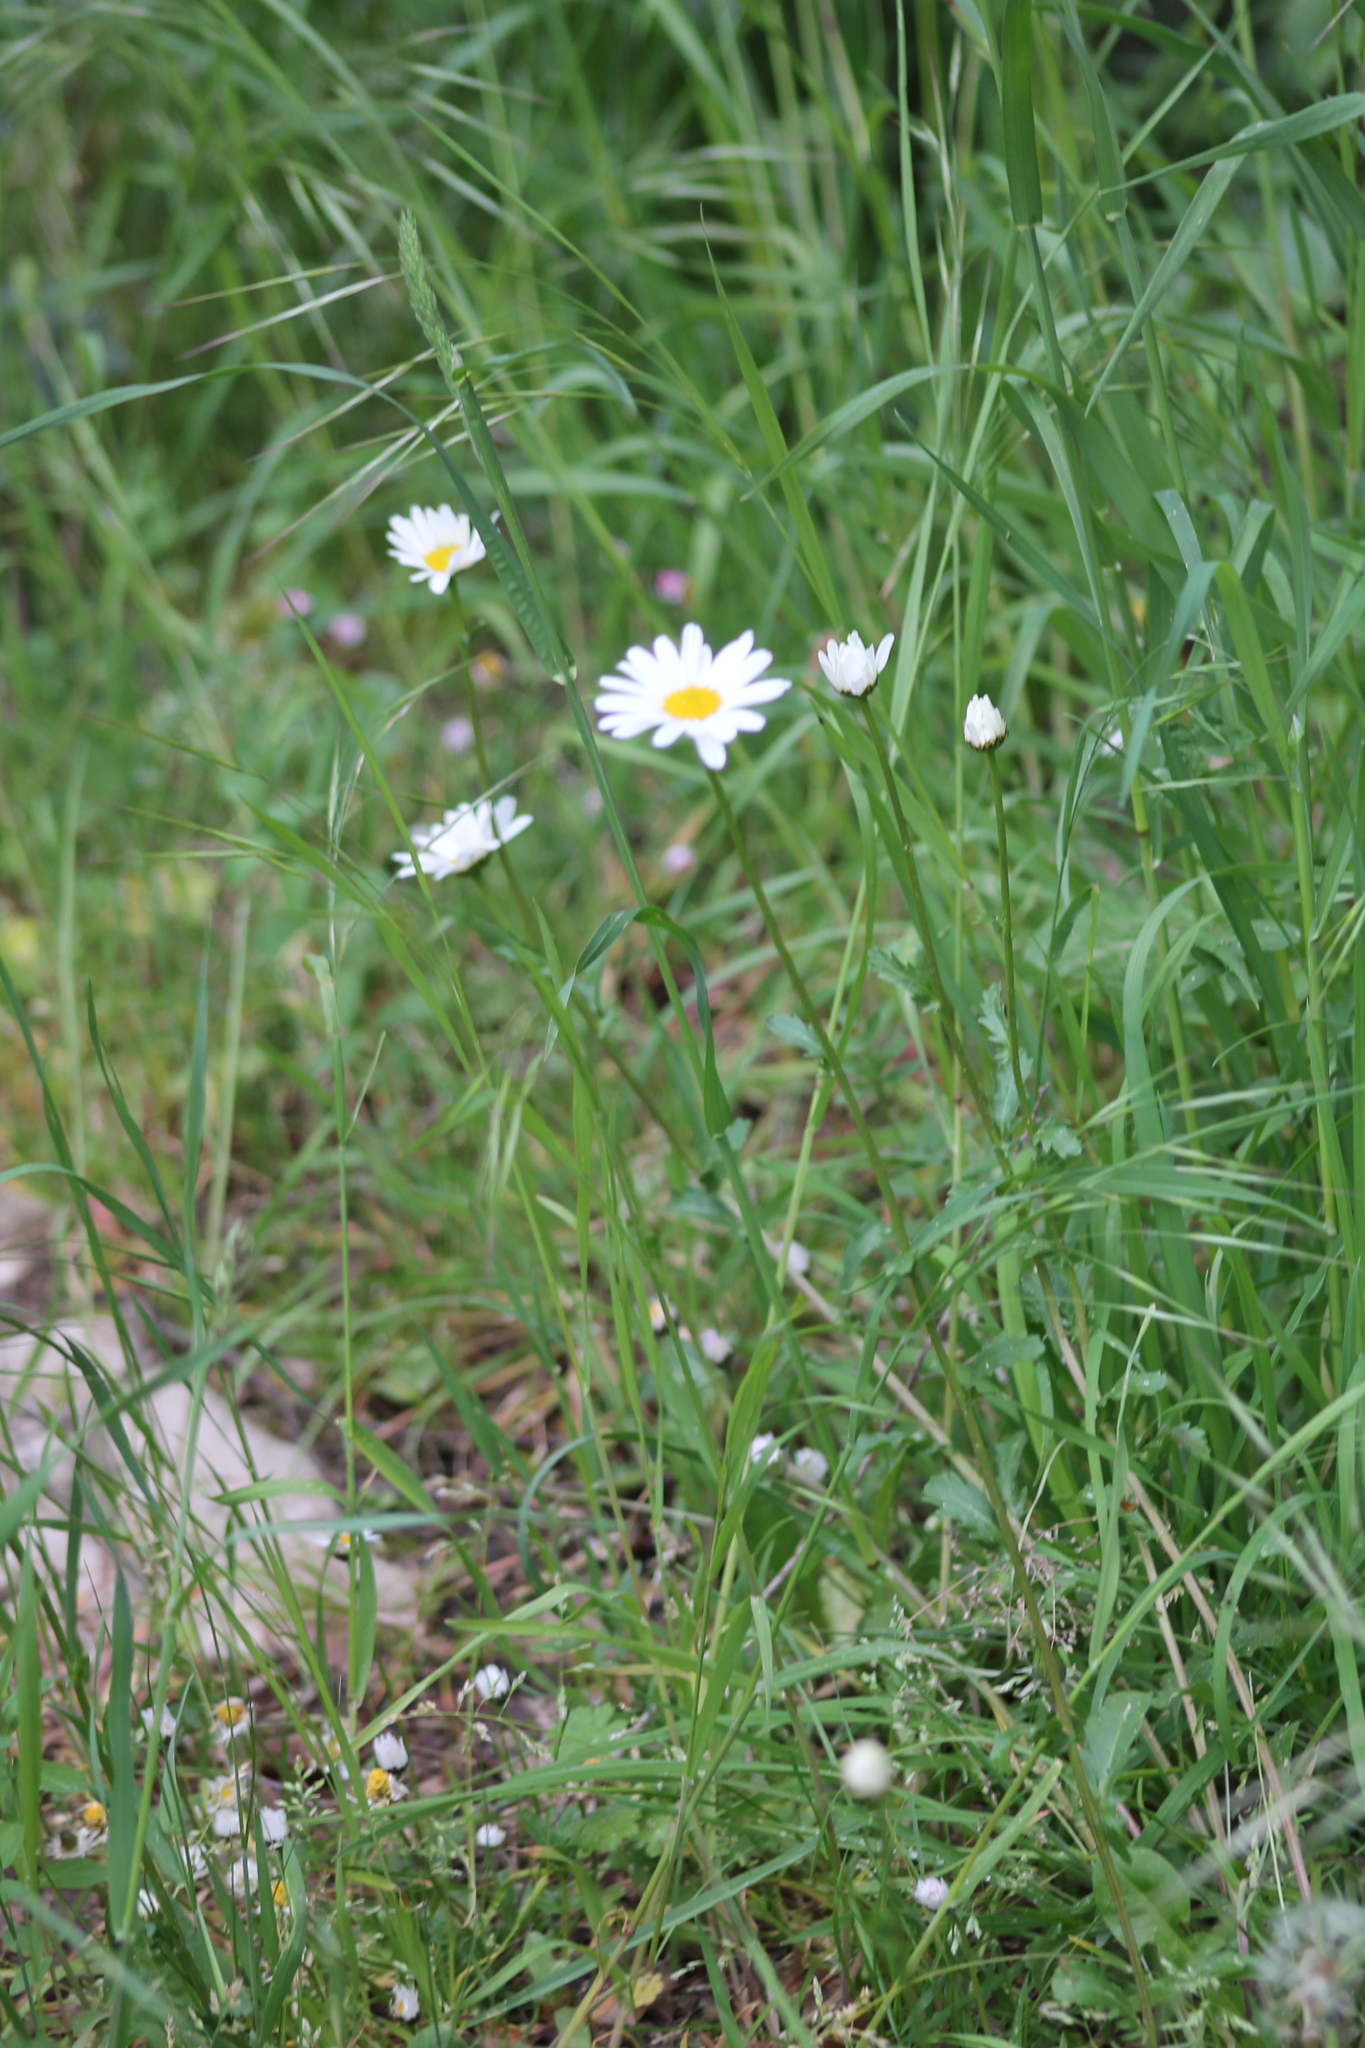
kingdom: Plantae
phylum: Tracheophyta
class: Magnoliopsida
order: Asterales
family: Asteraceae
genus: Leucanthemum
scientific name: Leucanthemum vulgare
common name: Oxeye daisy
